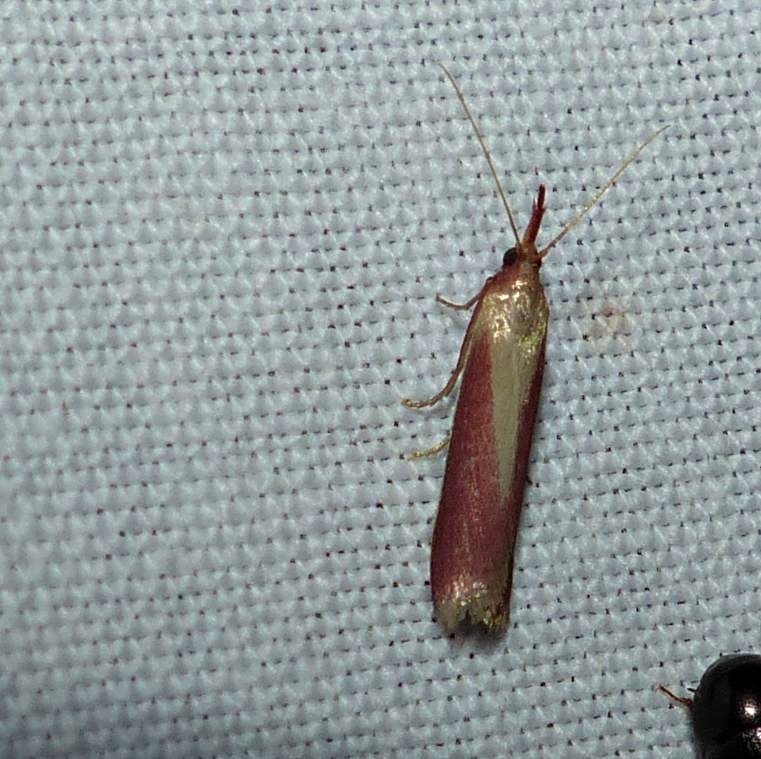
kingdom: Animalia
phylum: Arthropoda
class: Insecta
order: Lepidoptera
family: Pyralidae
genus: Peoria
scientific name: Peoria approximella
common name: Carmine snout
